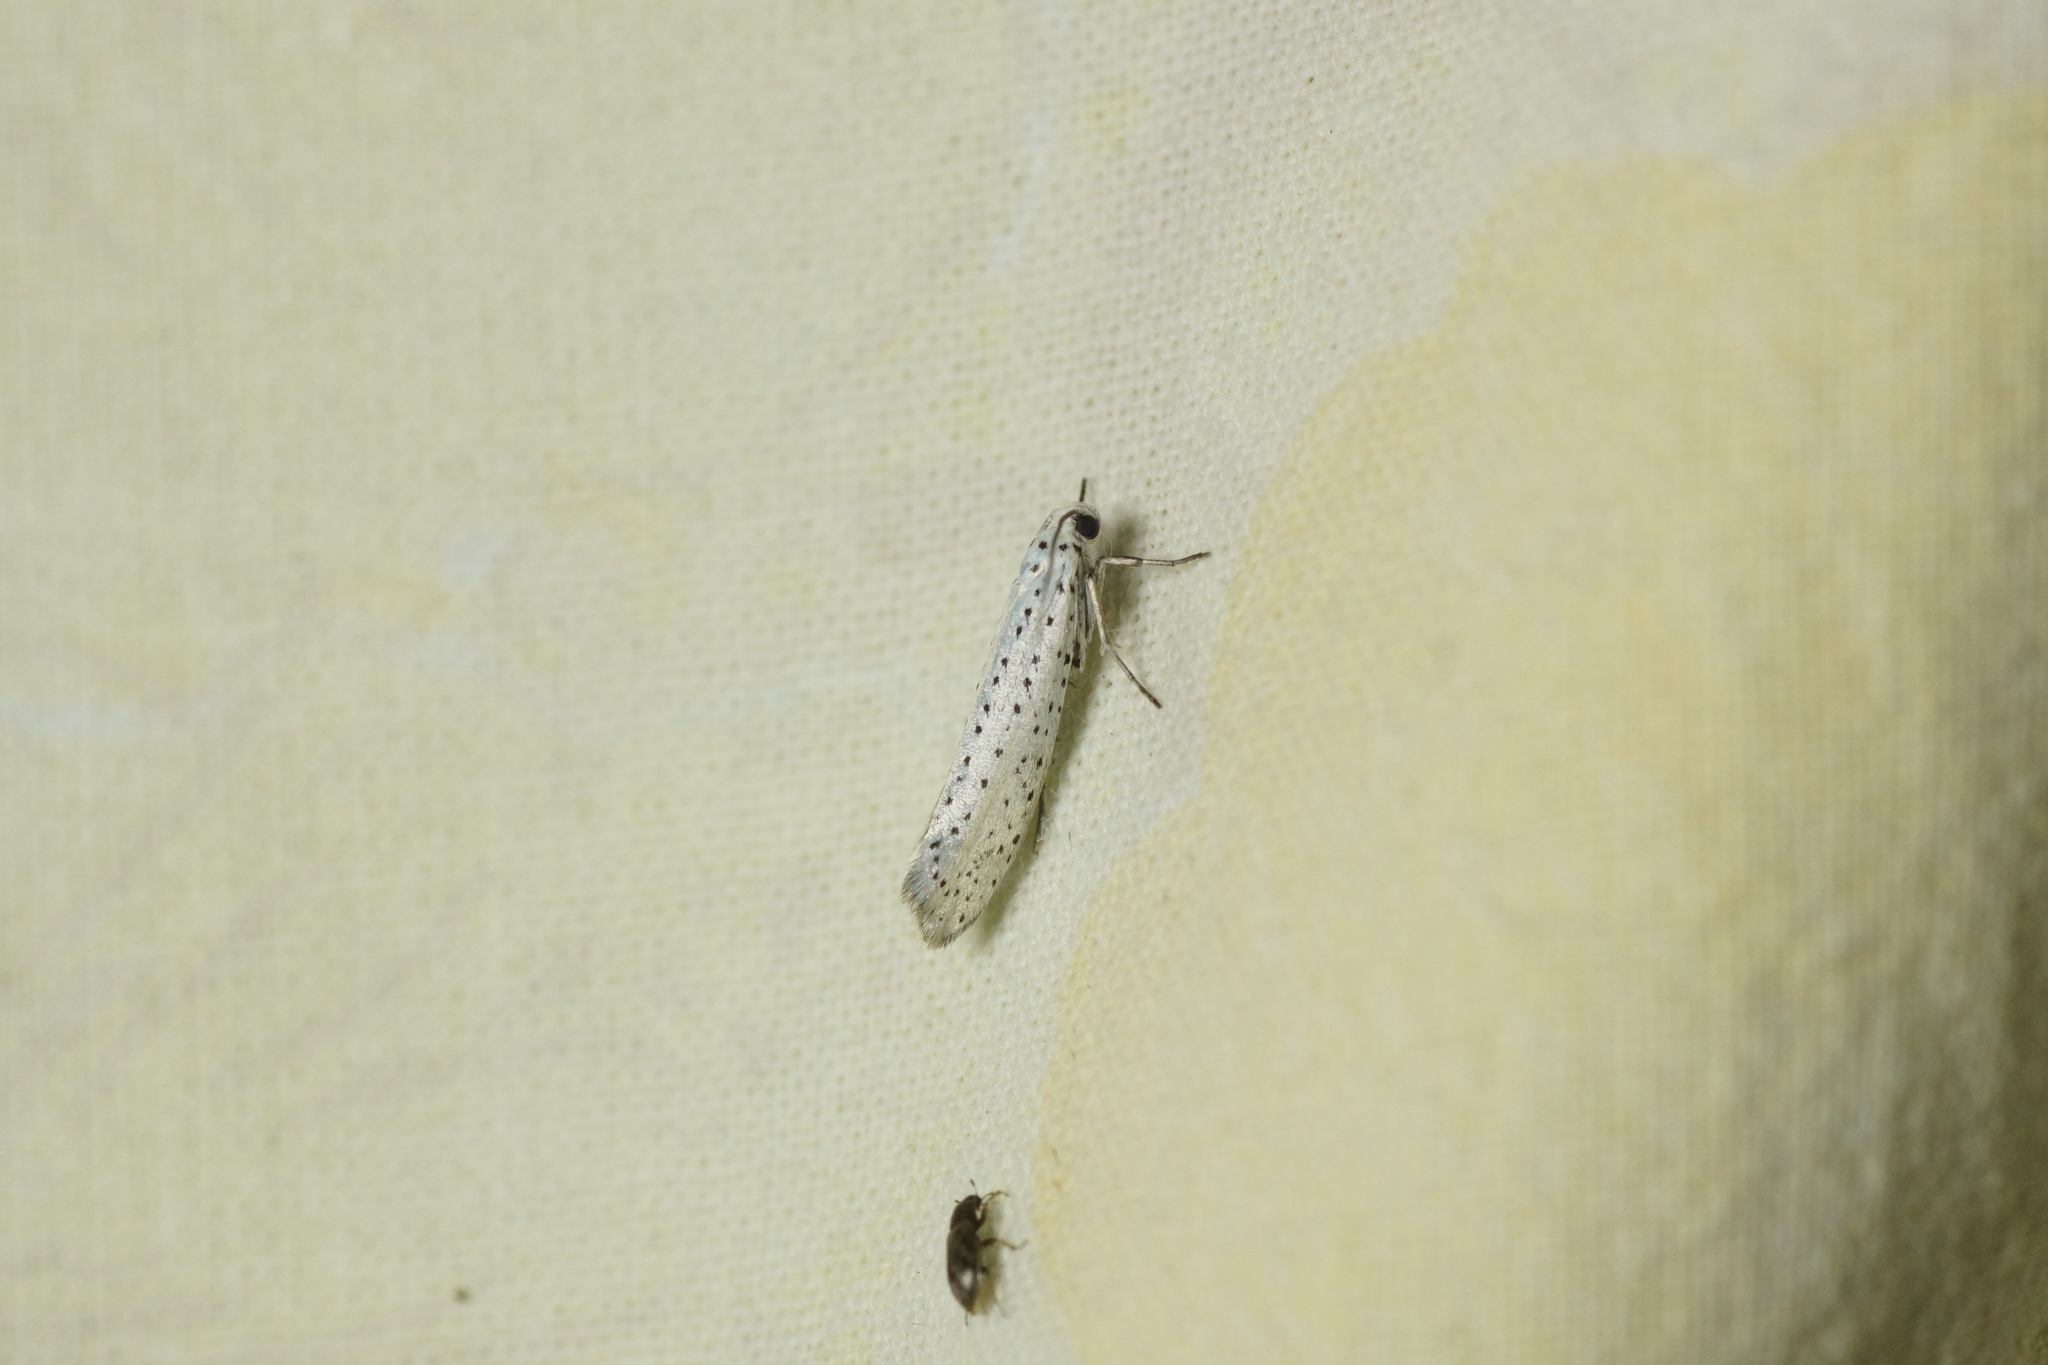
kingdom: Animalia
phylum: Arthropoda
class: Insecta
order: Lepidoptera
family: Yponomeutidae
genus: Yponomeuta
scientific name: Yponomeuta evonymella
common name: Bird-cherry ermine
